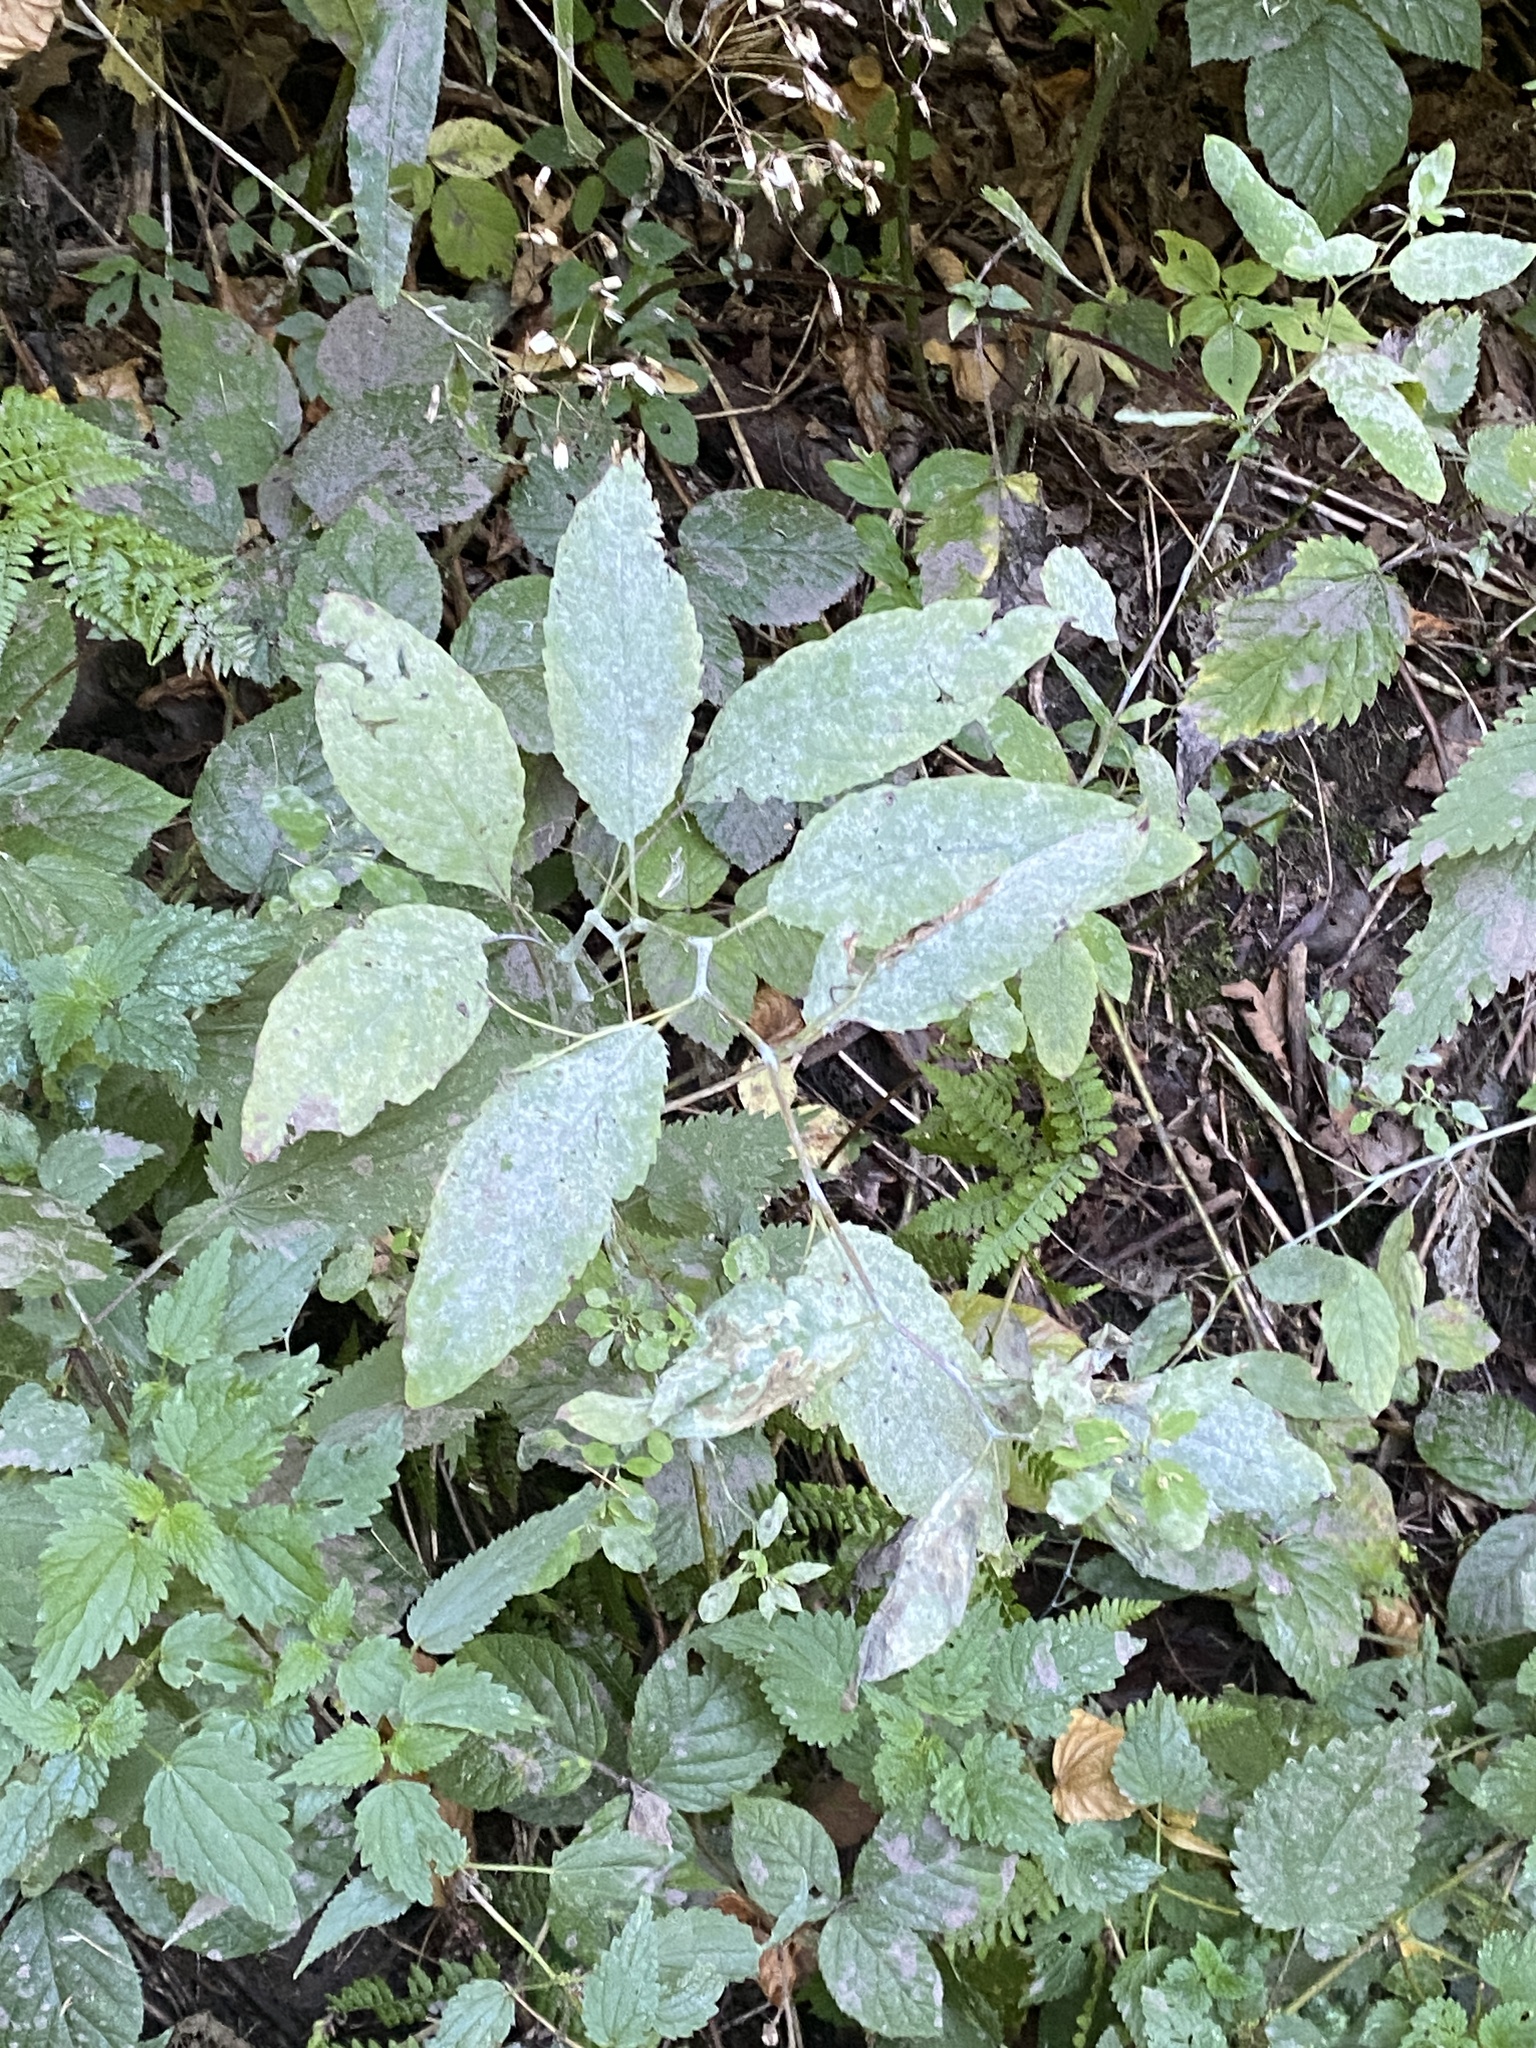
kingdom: Plantae
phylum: Tracheophyta
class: Magnoliopsida
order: Ericales
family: Balsaminaceae
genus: Impatiens
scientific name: Impatiens noli-tangere
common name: Touch-me-not balsam
